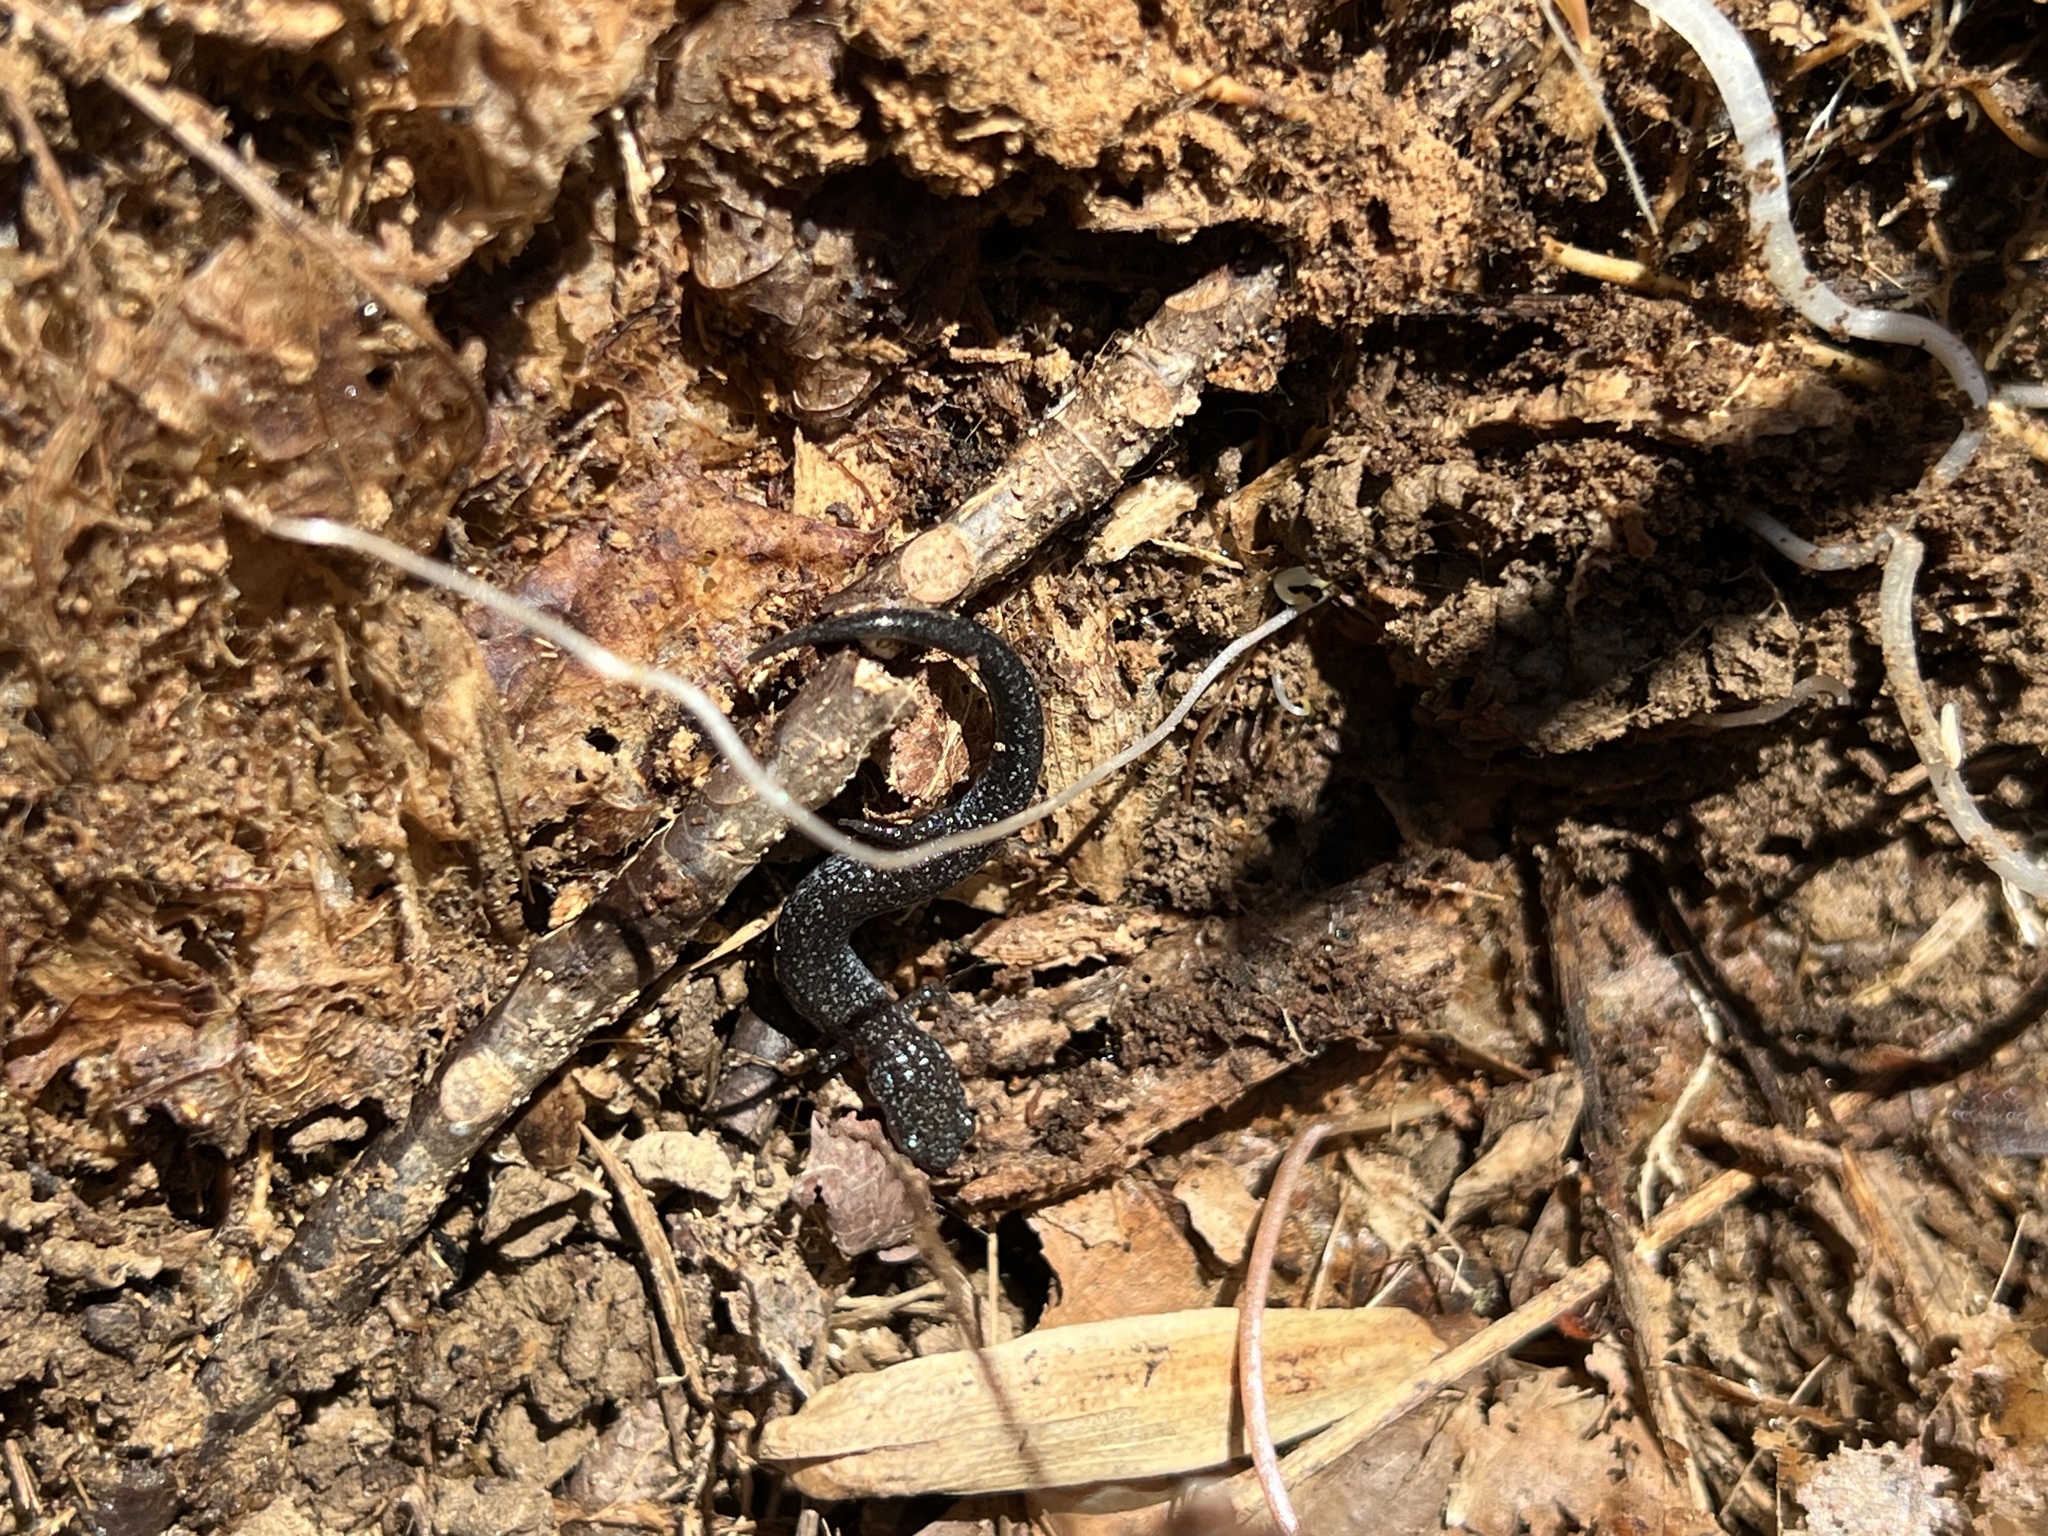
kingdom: Animalia
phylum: Chordata
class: Amphibia
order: Caudata
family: Plethodontidae
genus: Plethodon
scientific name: Plethodon cinereus
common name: Redback salamander
